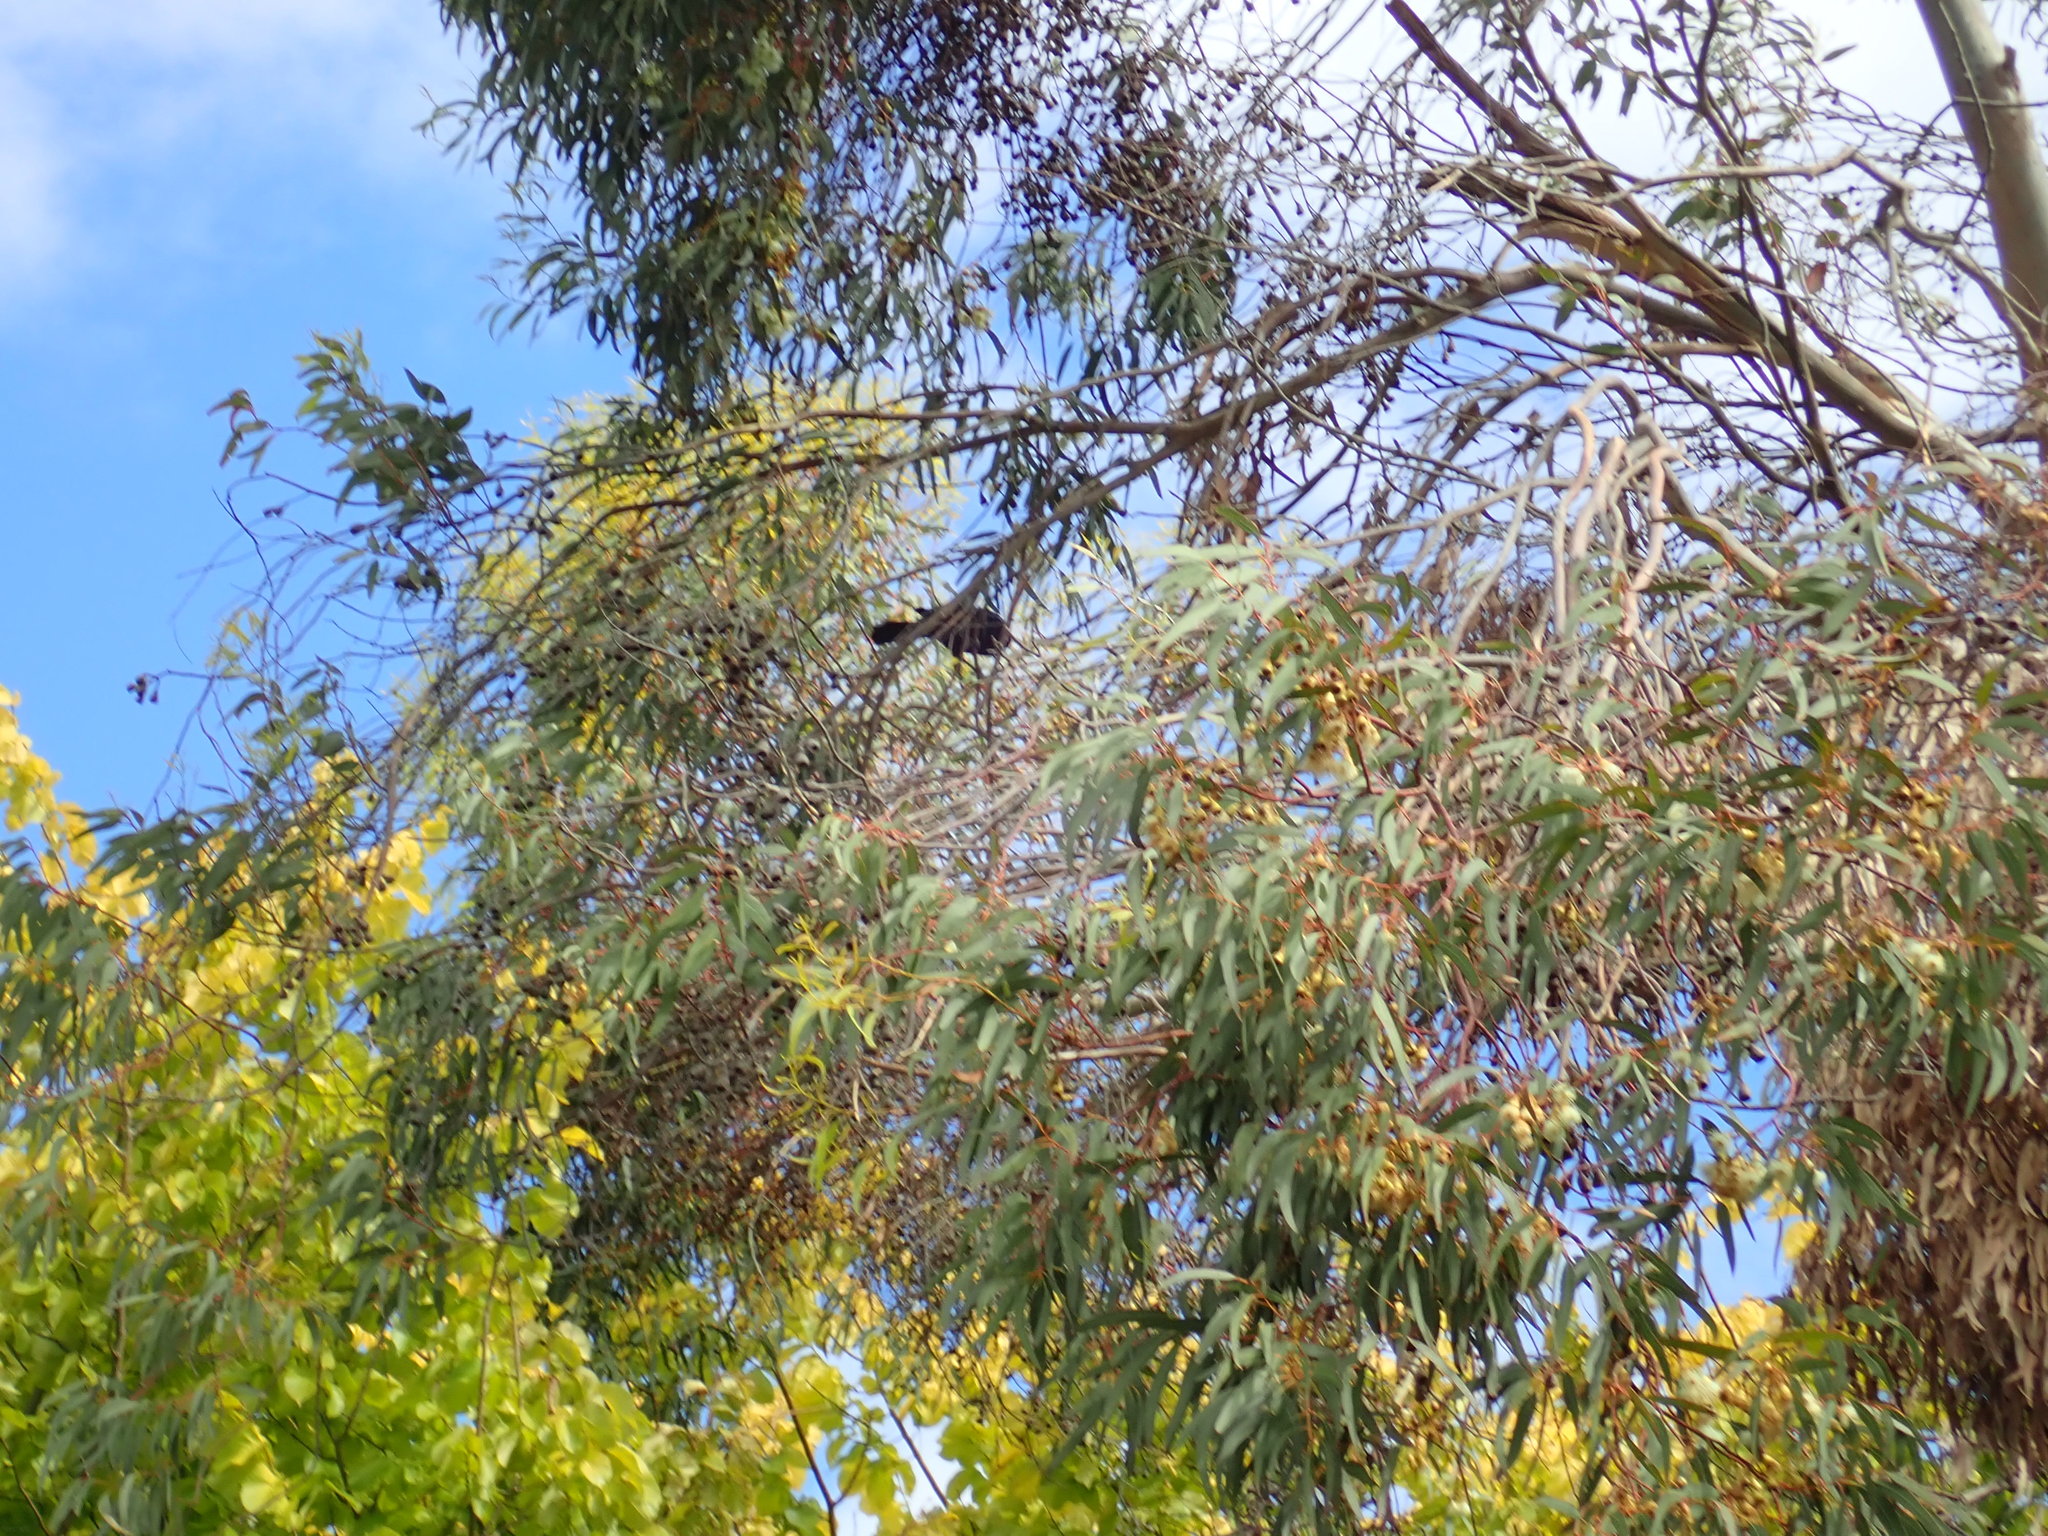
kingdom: Animalia
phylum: Chordata
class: Aves
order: Passeriformes
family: Meliphagidae
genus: Prosthemadera
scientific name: Prosthemadera novaeseelandiae
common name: Tui
